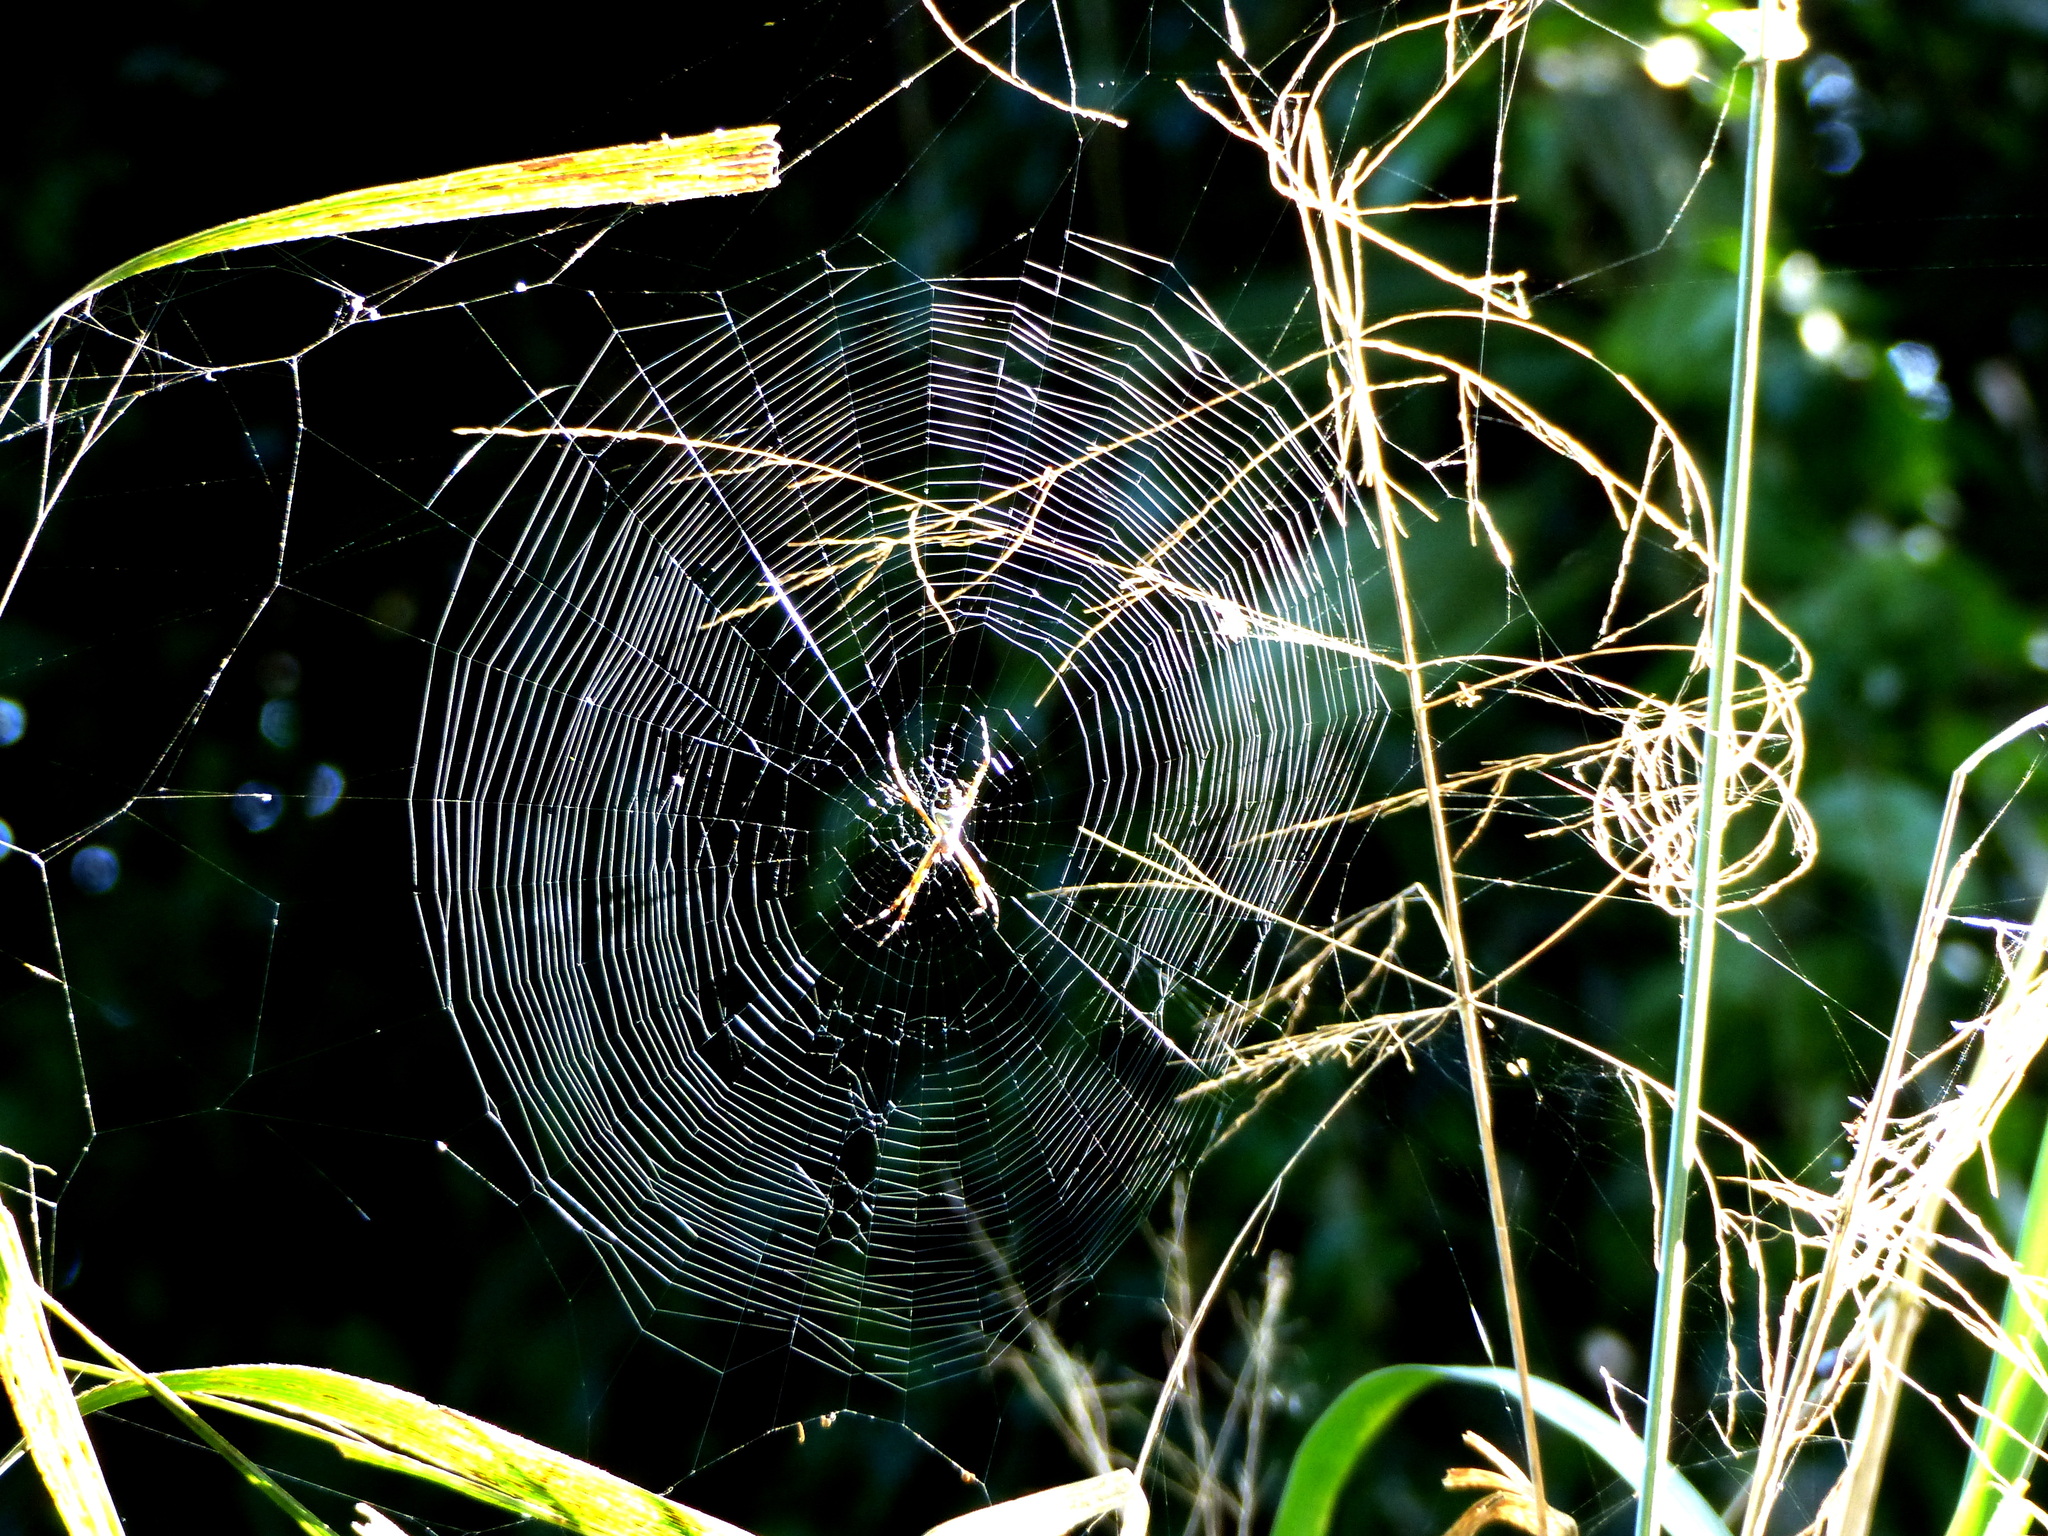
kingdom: Animalia
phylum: Arthropoda
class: Arachnida
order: Araneae
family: Araneidae
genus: Argiope
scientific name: Argiope argentata
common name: Orb weavers
